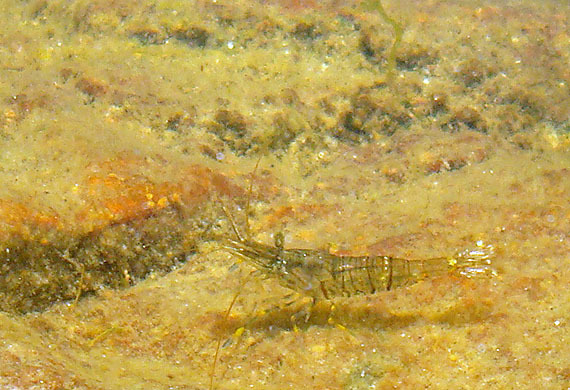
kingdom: Animalia
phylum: Arthropoda
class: Malacostraca
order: Decapoda
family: Palaemonidae
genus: Palaemon
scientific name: Palaemon elegans
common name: Grass prawm
